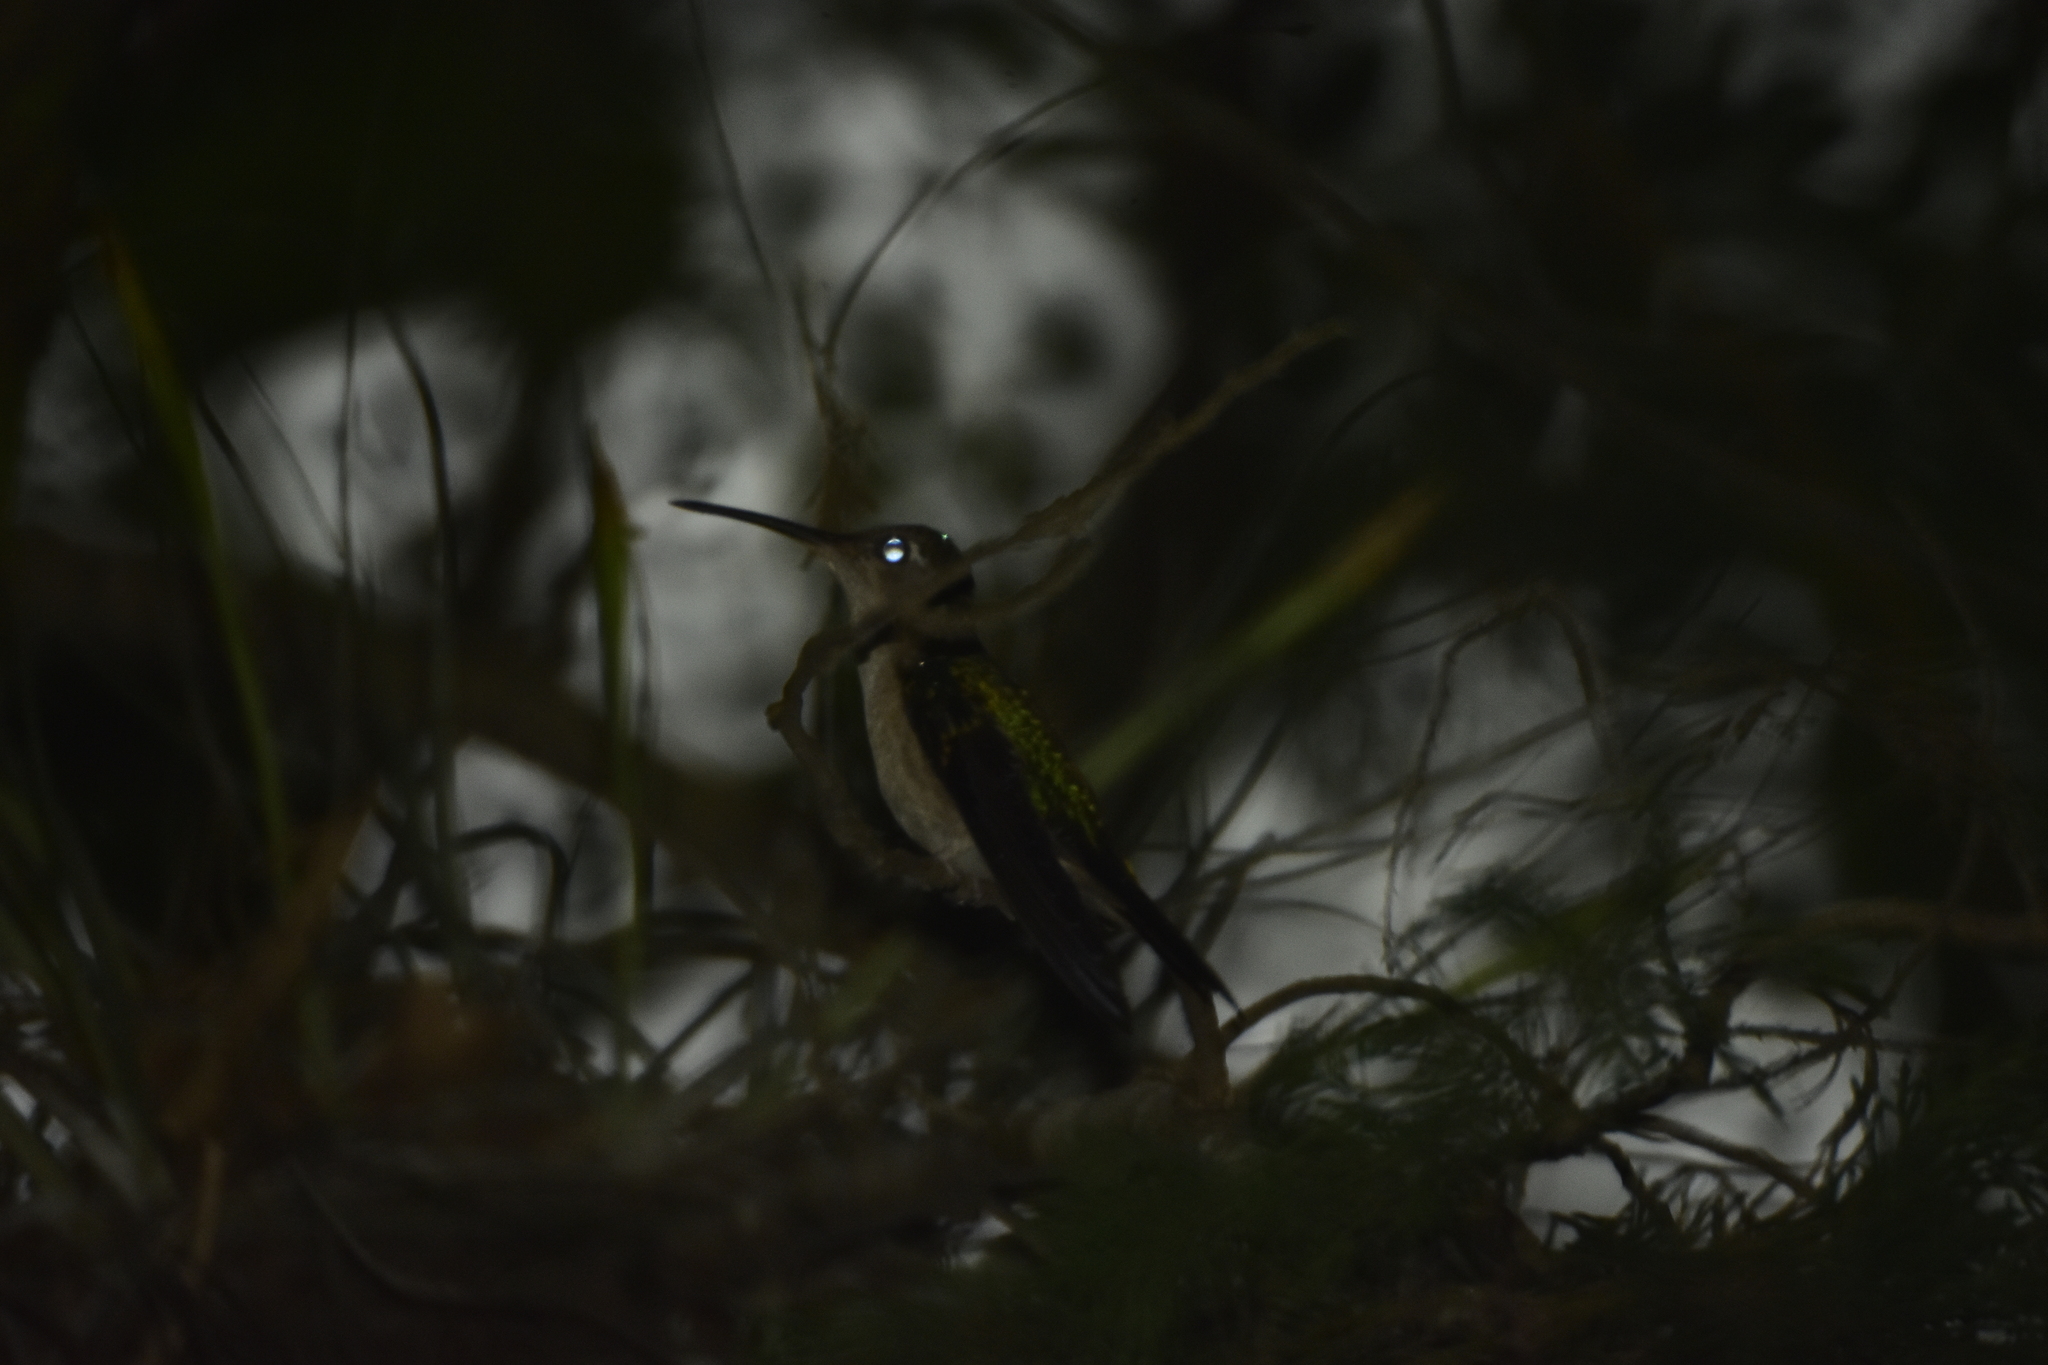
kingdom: Animalia
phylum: Chordata
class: Aves
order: Apodiformes
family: Trochilidae
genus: Pampa
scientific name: Pampa curvipennis
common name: Curve-winged sabrewing
